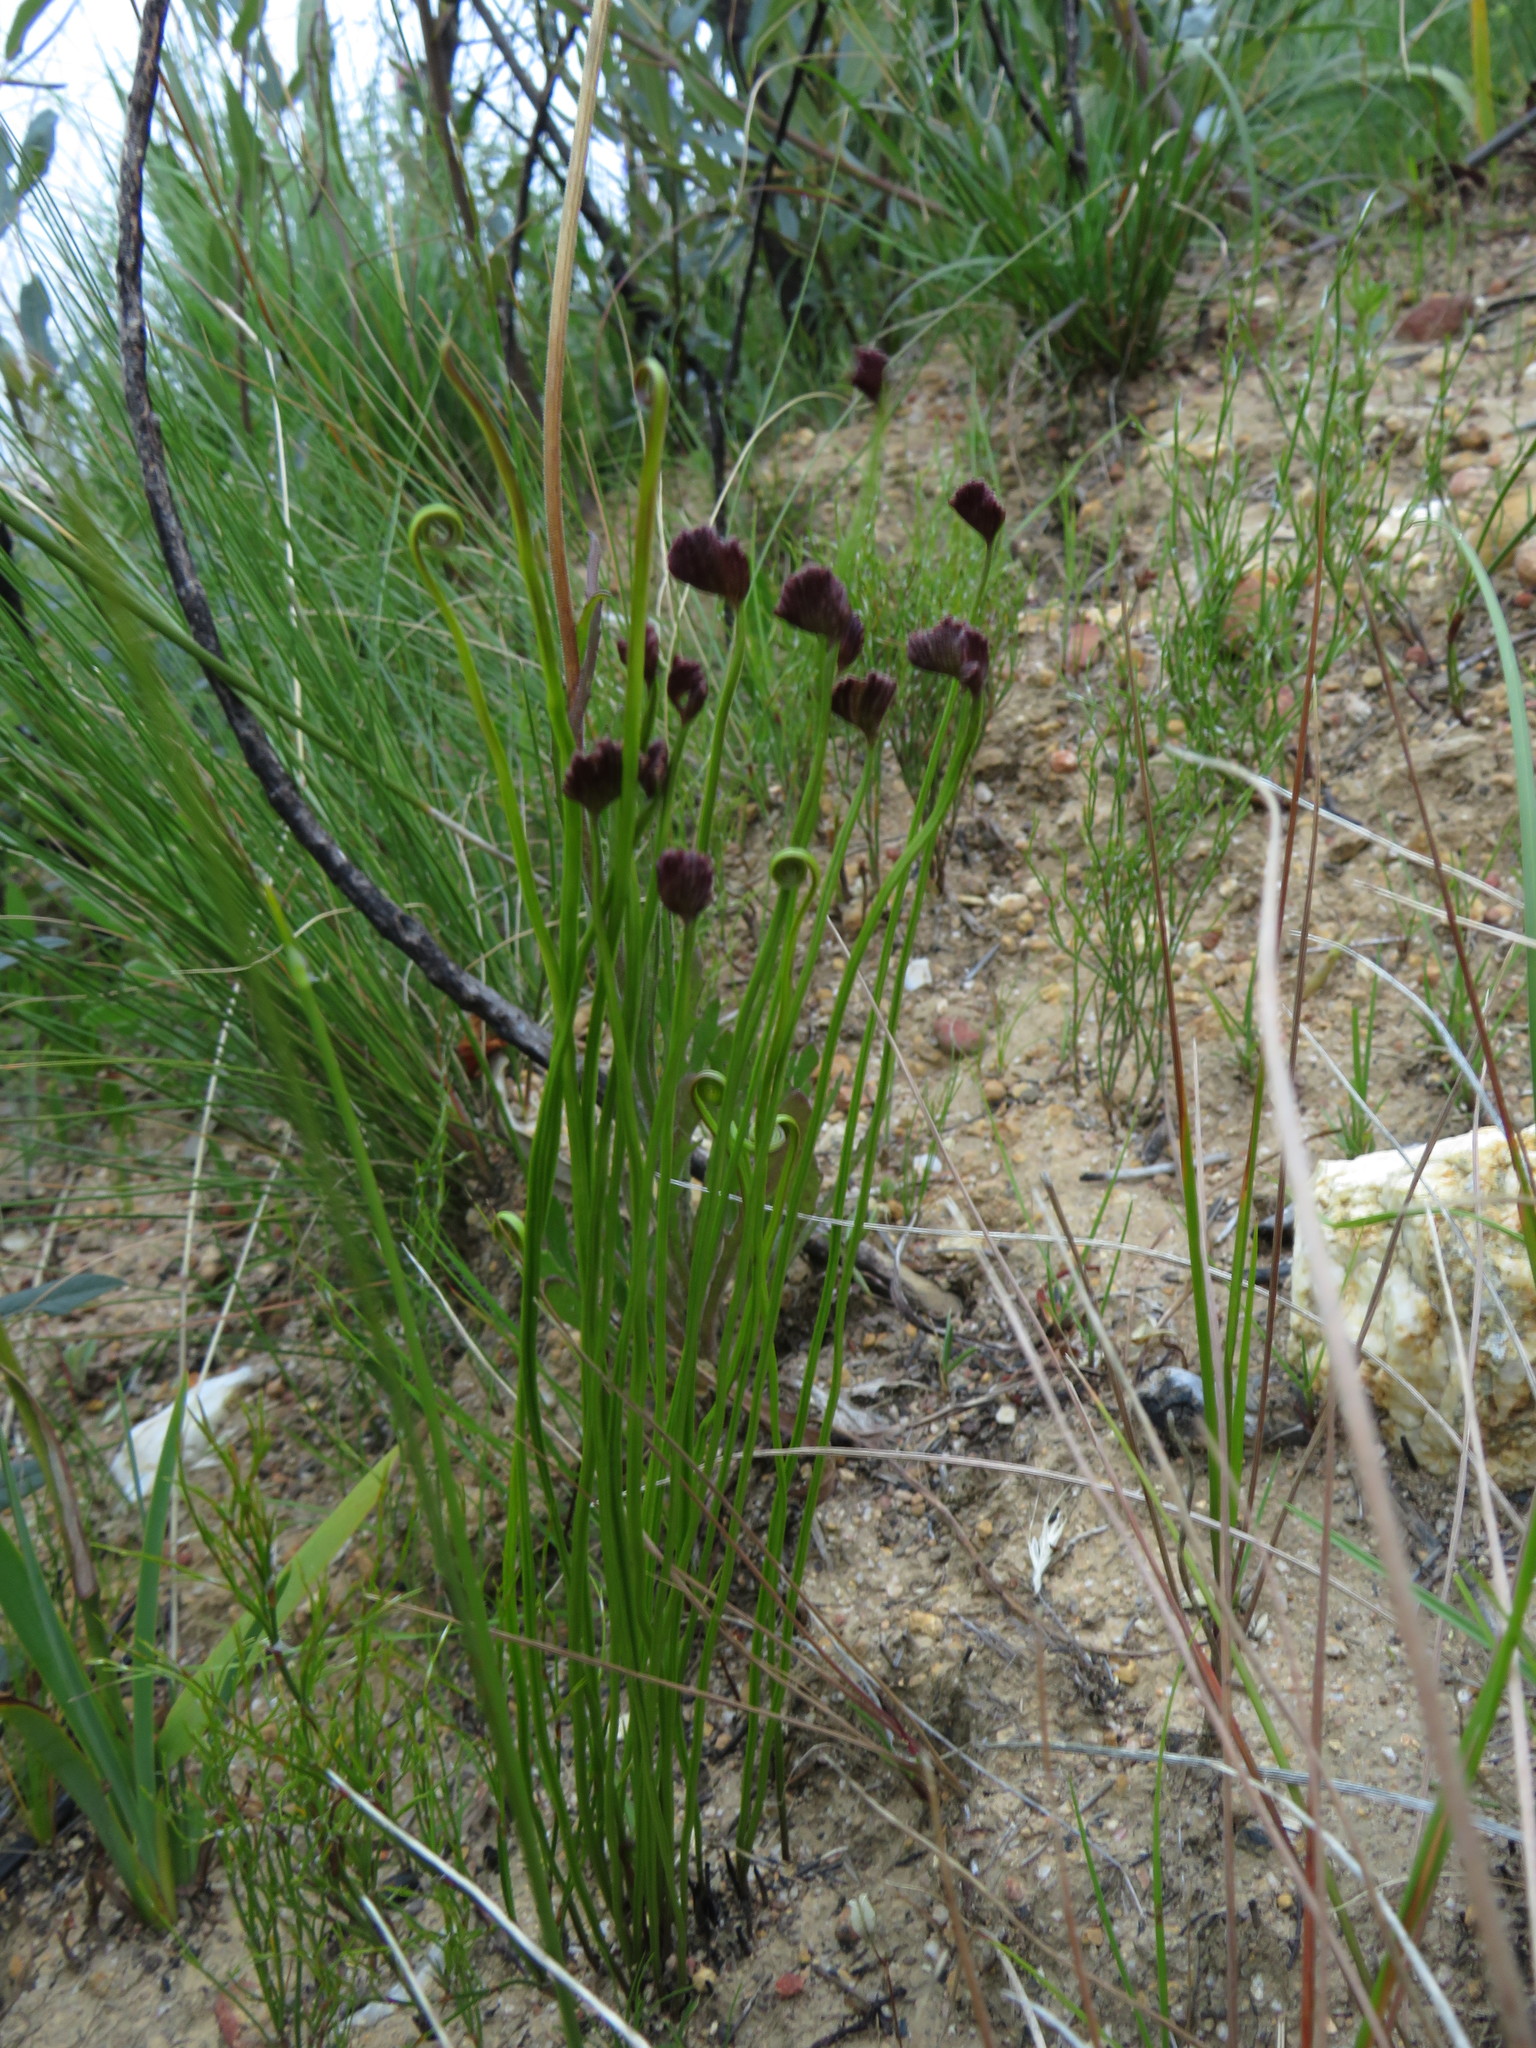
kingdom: Plantae
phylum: Tracheophyta
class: Polypodiopsida
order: Schizaeales
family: Schizaeaceae
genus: Schizaea
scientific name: Schizaea pectinata
